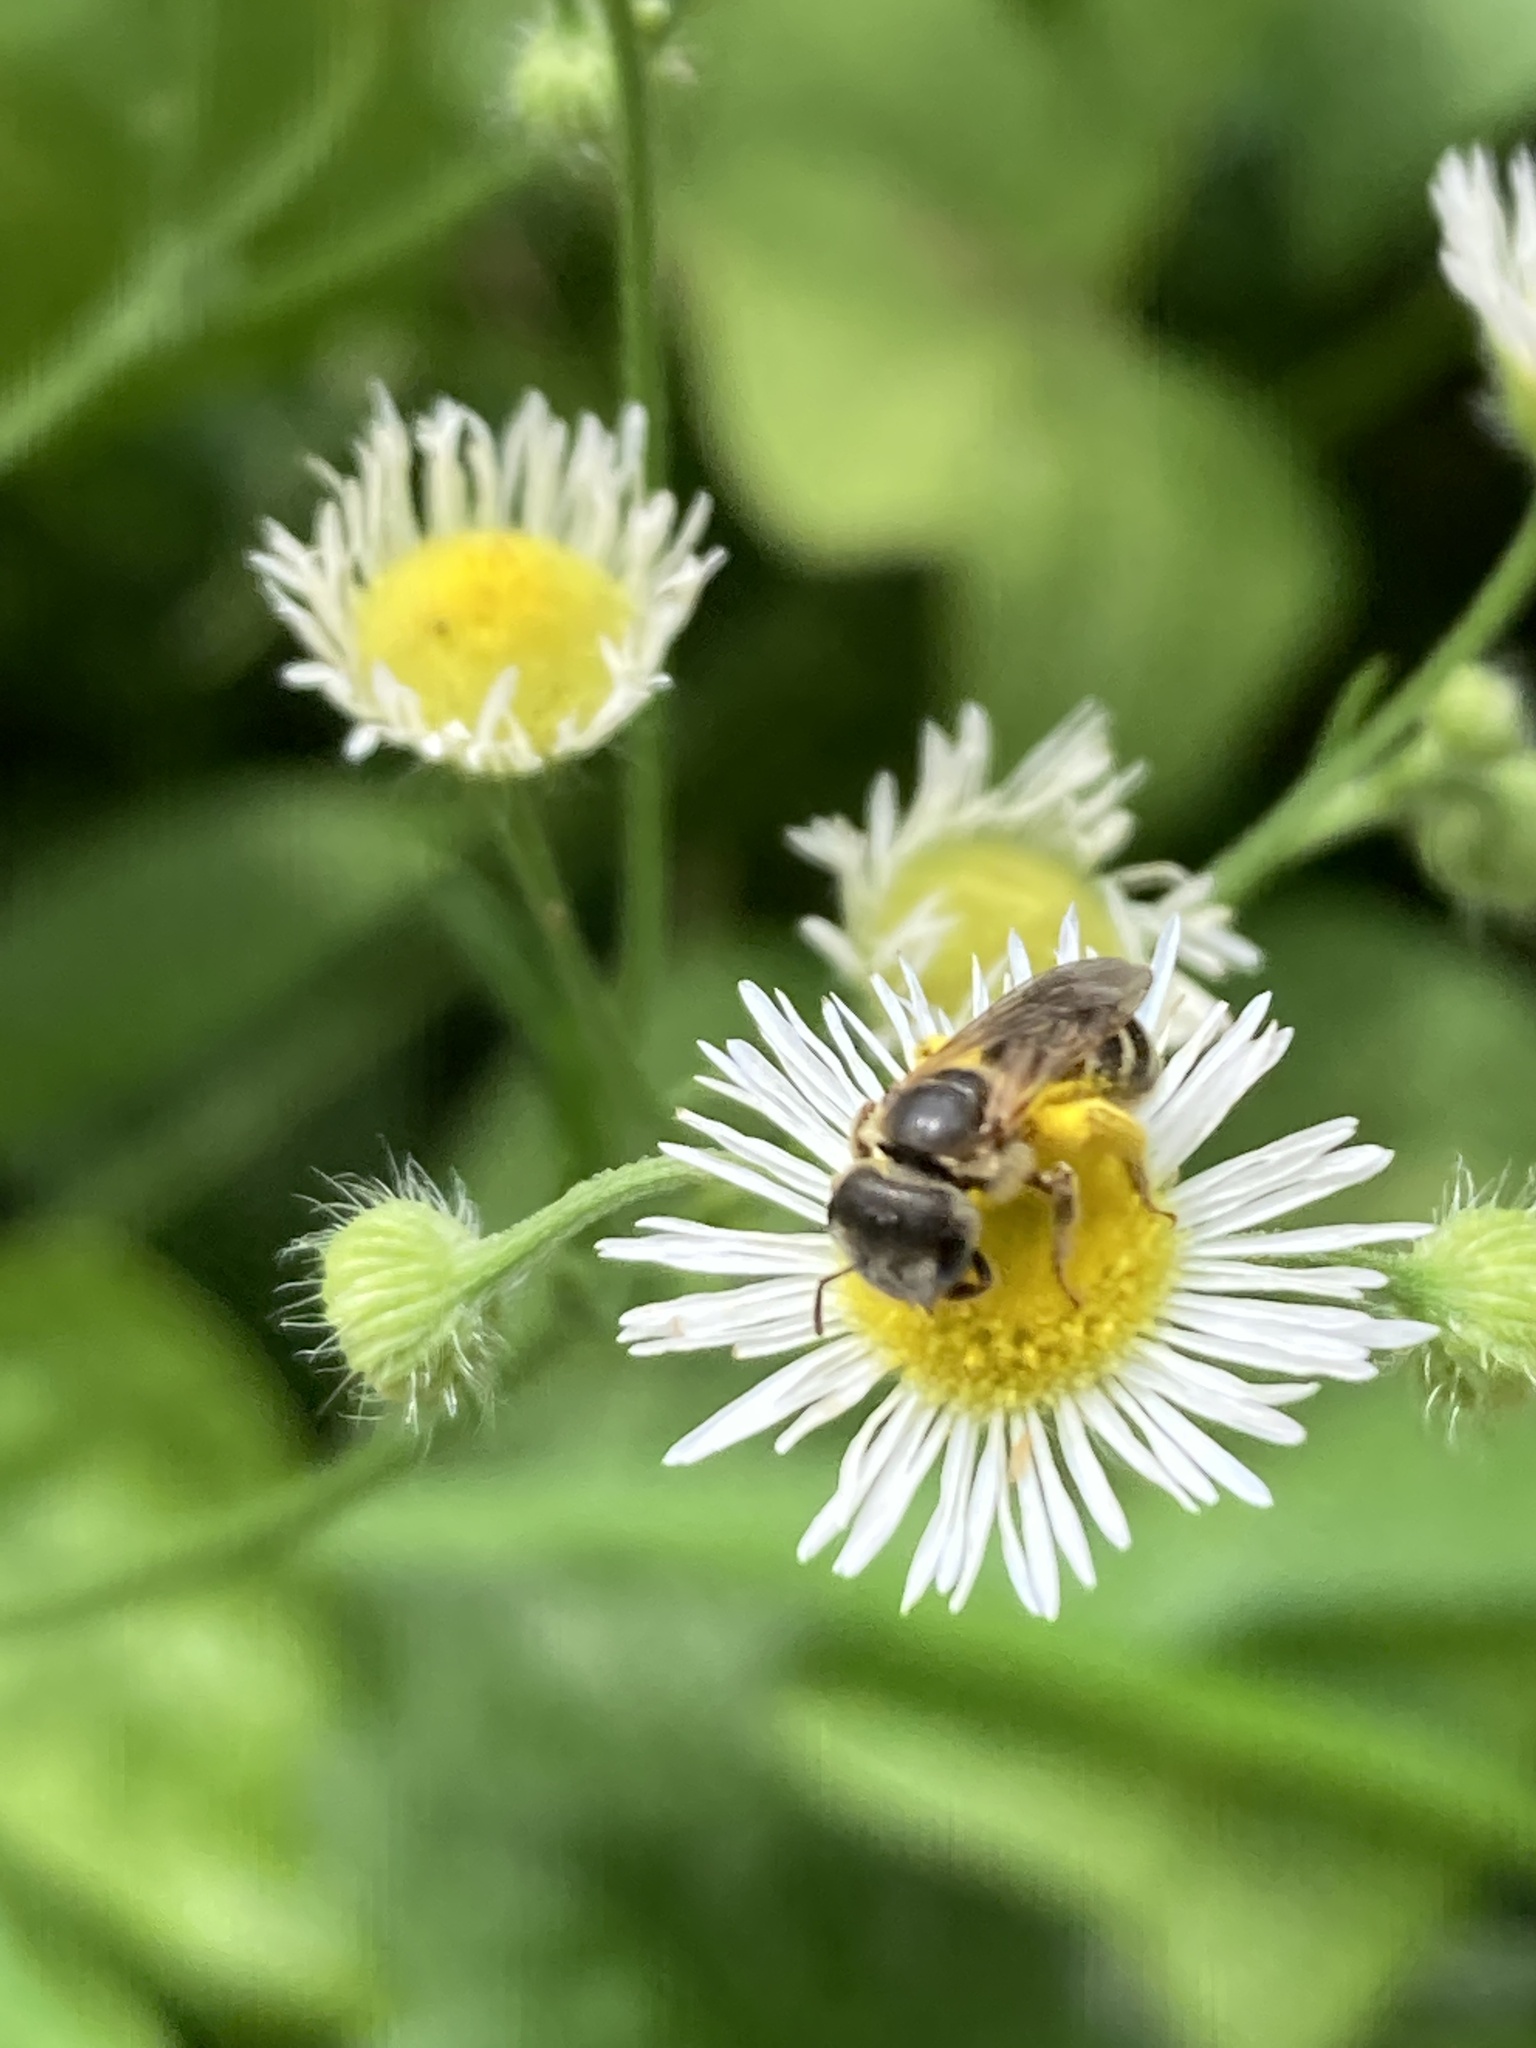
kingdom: Animalia
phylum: Arthropoda
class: Insecta
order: Hymenoptera
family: Halictidae
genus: Halictus
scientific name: Halictus ligatus
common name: Ligated furrow bee
